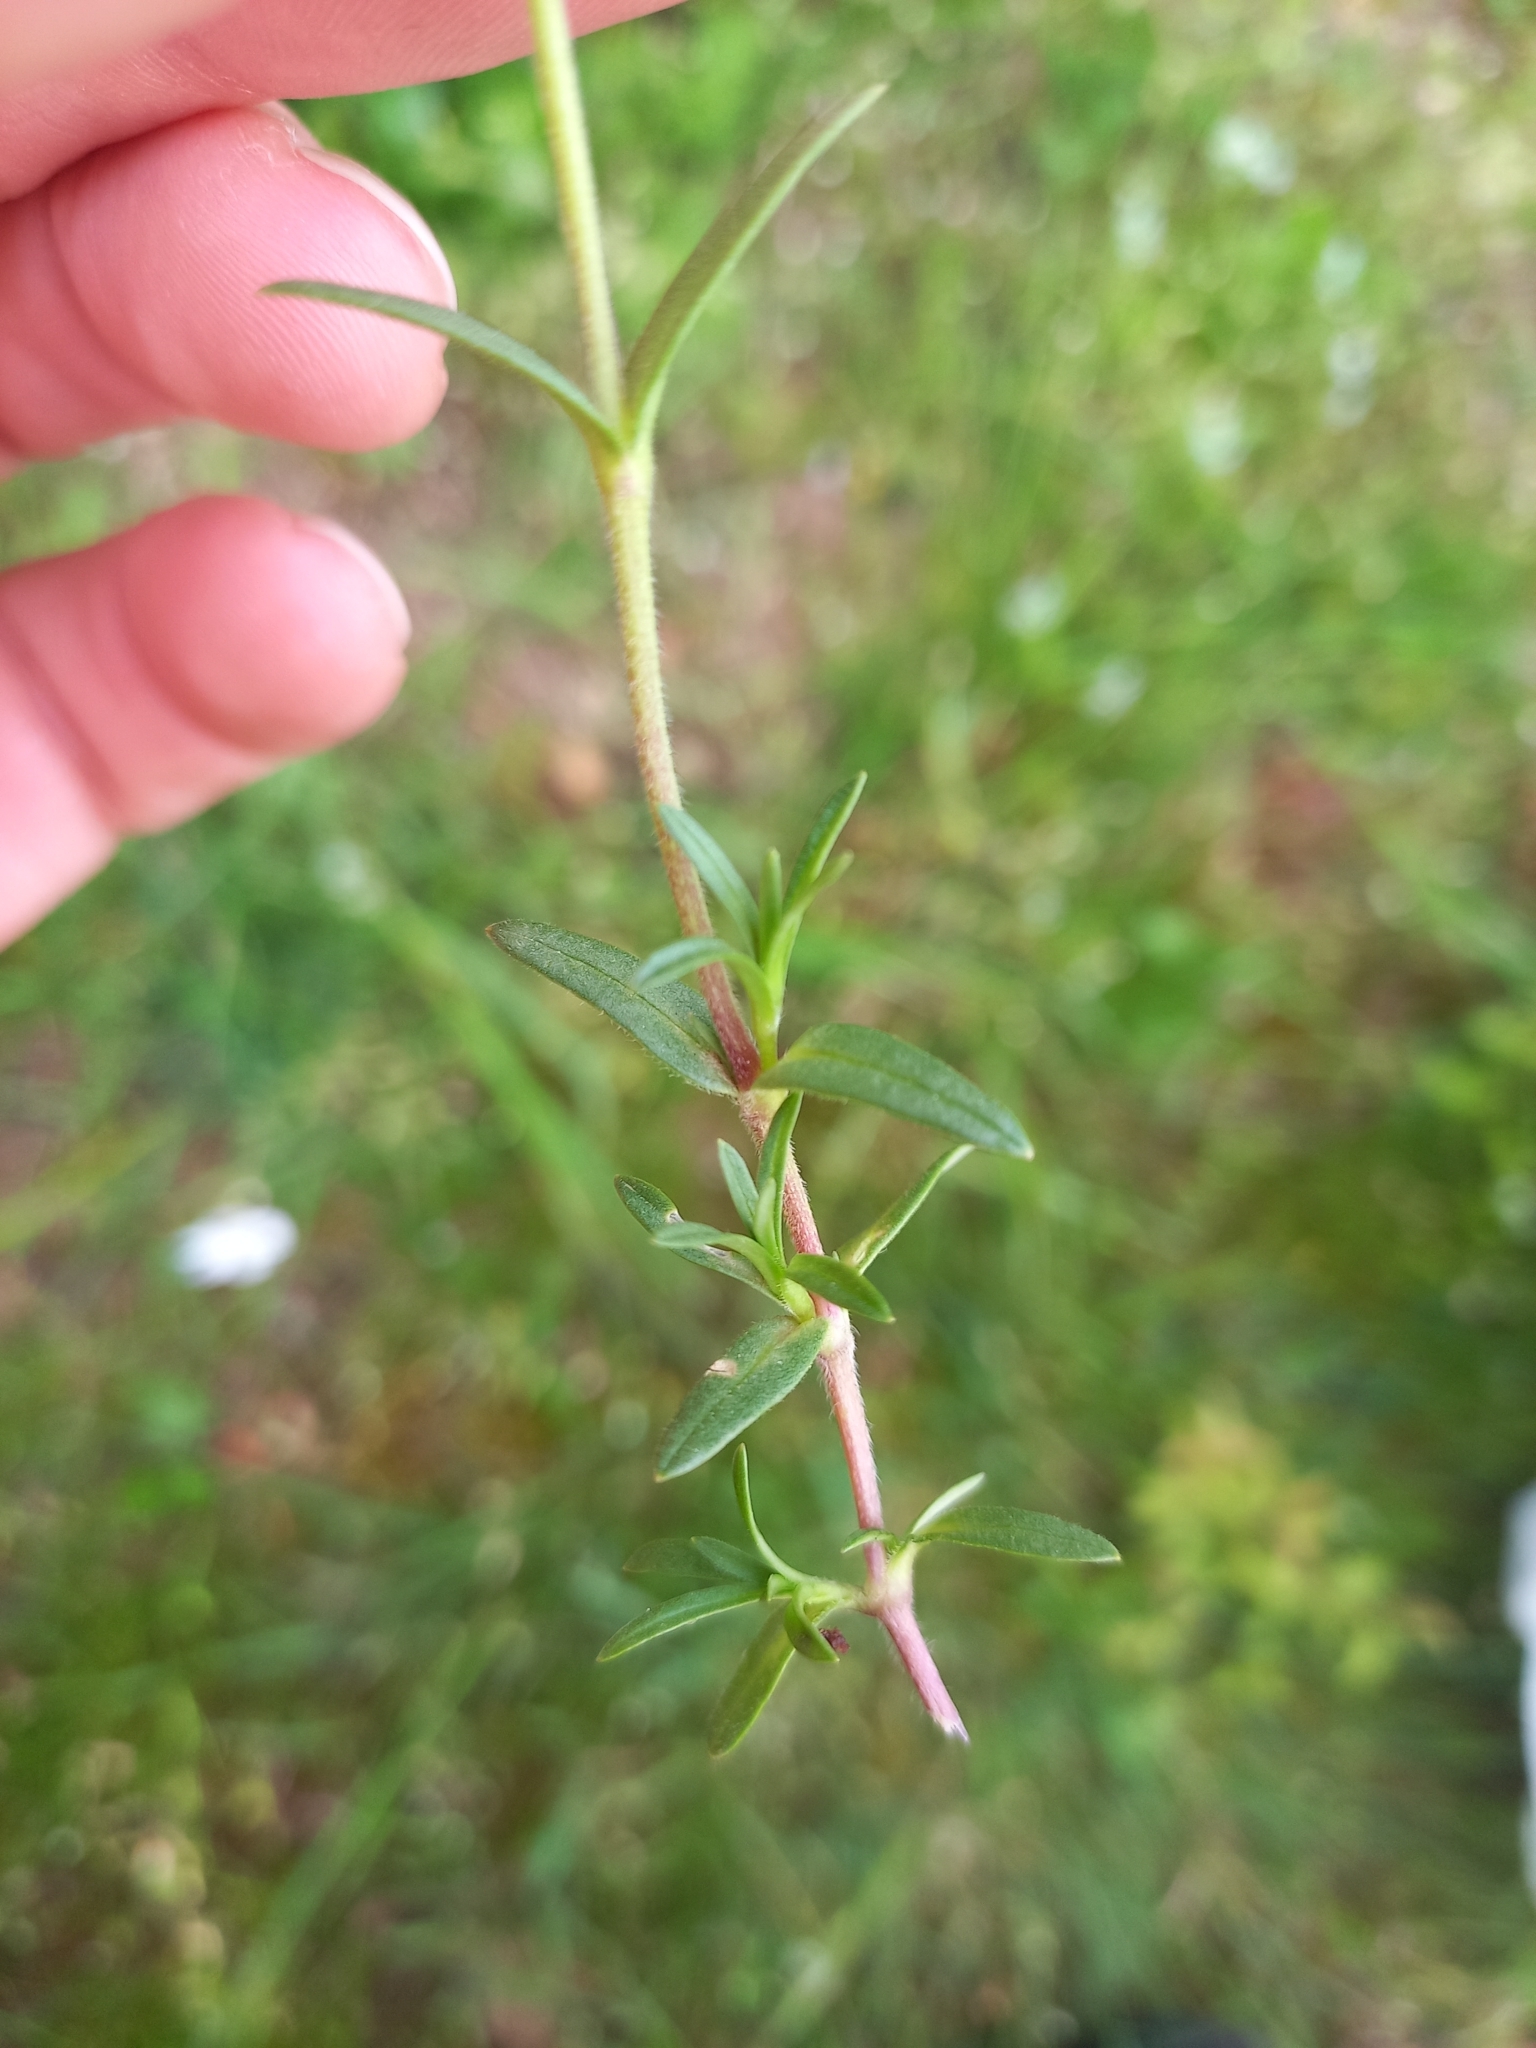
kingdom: Plantae
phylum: Tracheophyta
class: Magnoliopsida
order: Caryophyllales
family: Caryophyllaceae
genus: Cerastium
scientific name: Cerastium arvense
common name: Field mouse-ear
